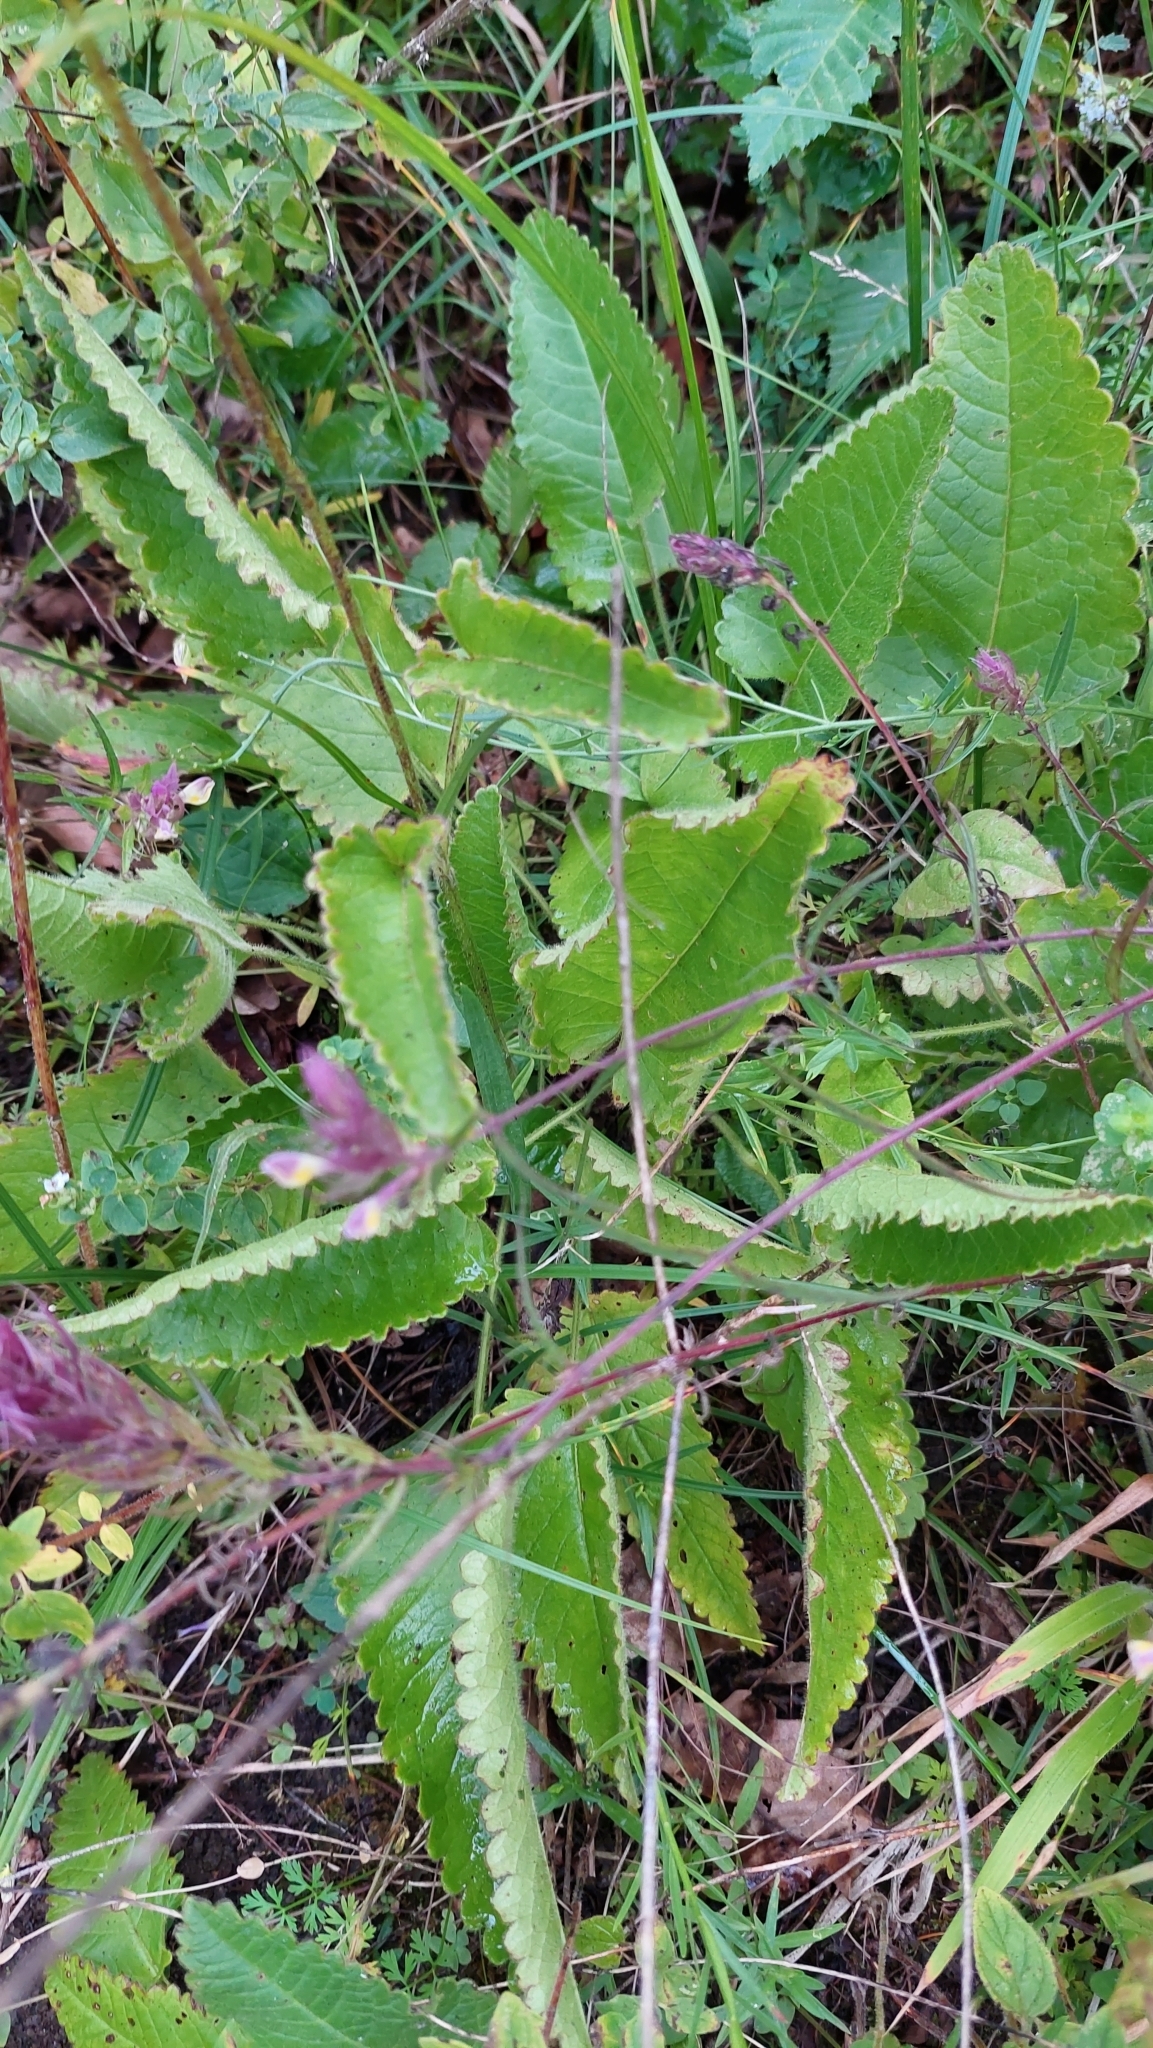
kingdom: Plantae
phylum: Tracheophyta
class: Magnoliopsida
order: Lamiales
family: Lamiaceae
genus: Betonica
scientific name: Betonica officinalis
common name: Bishop's-wort
